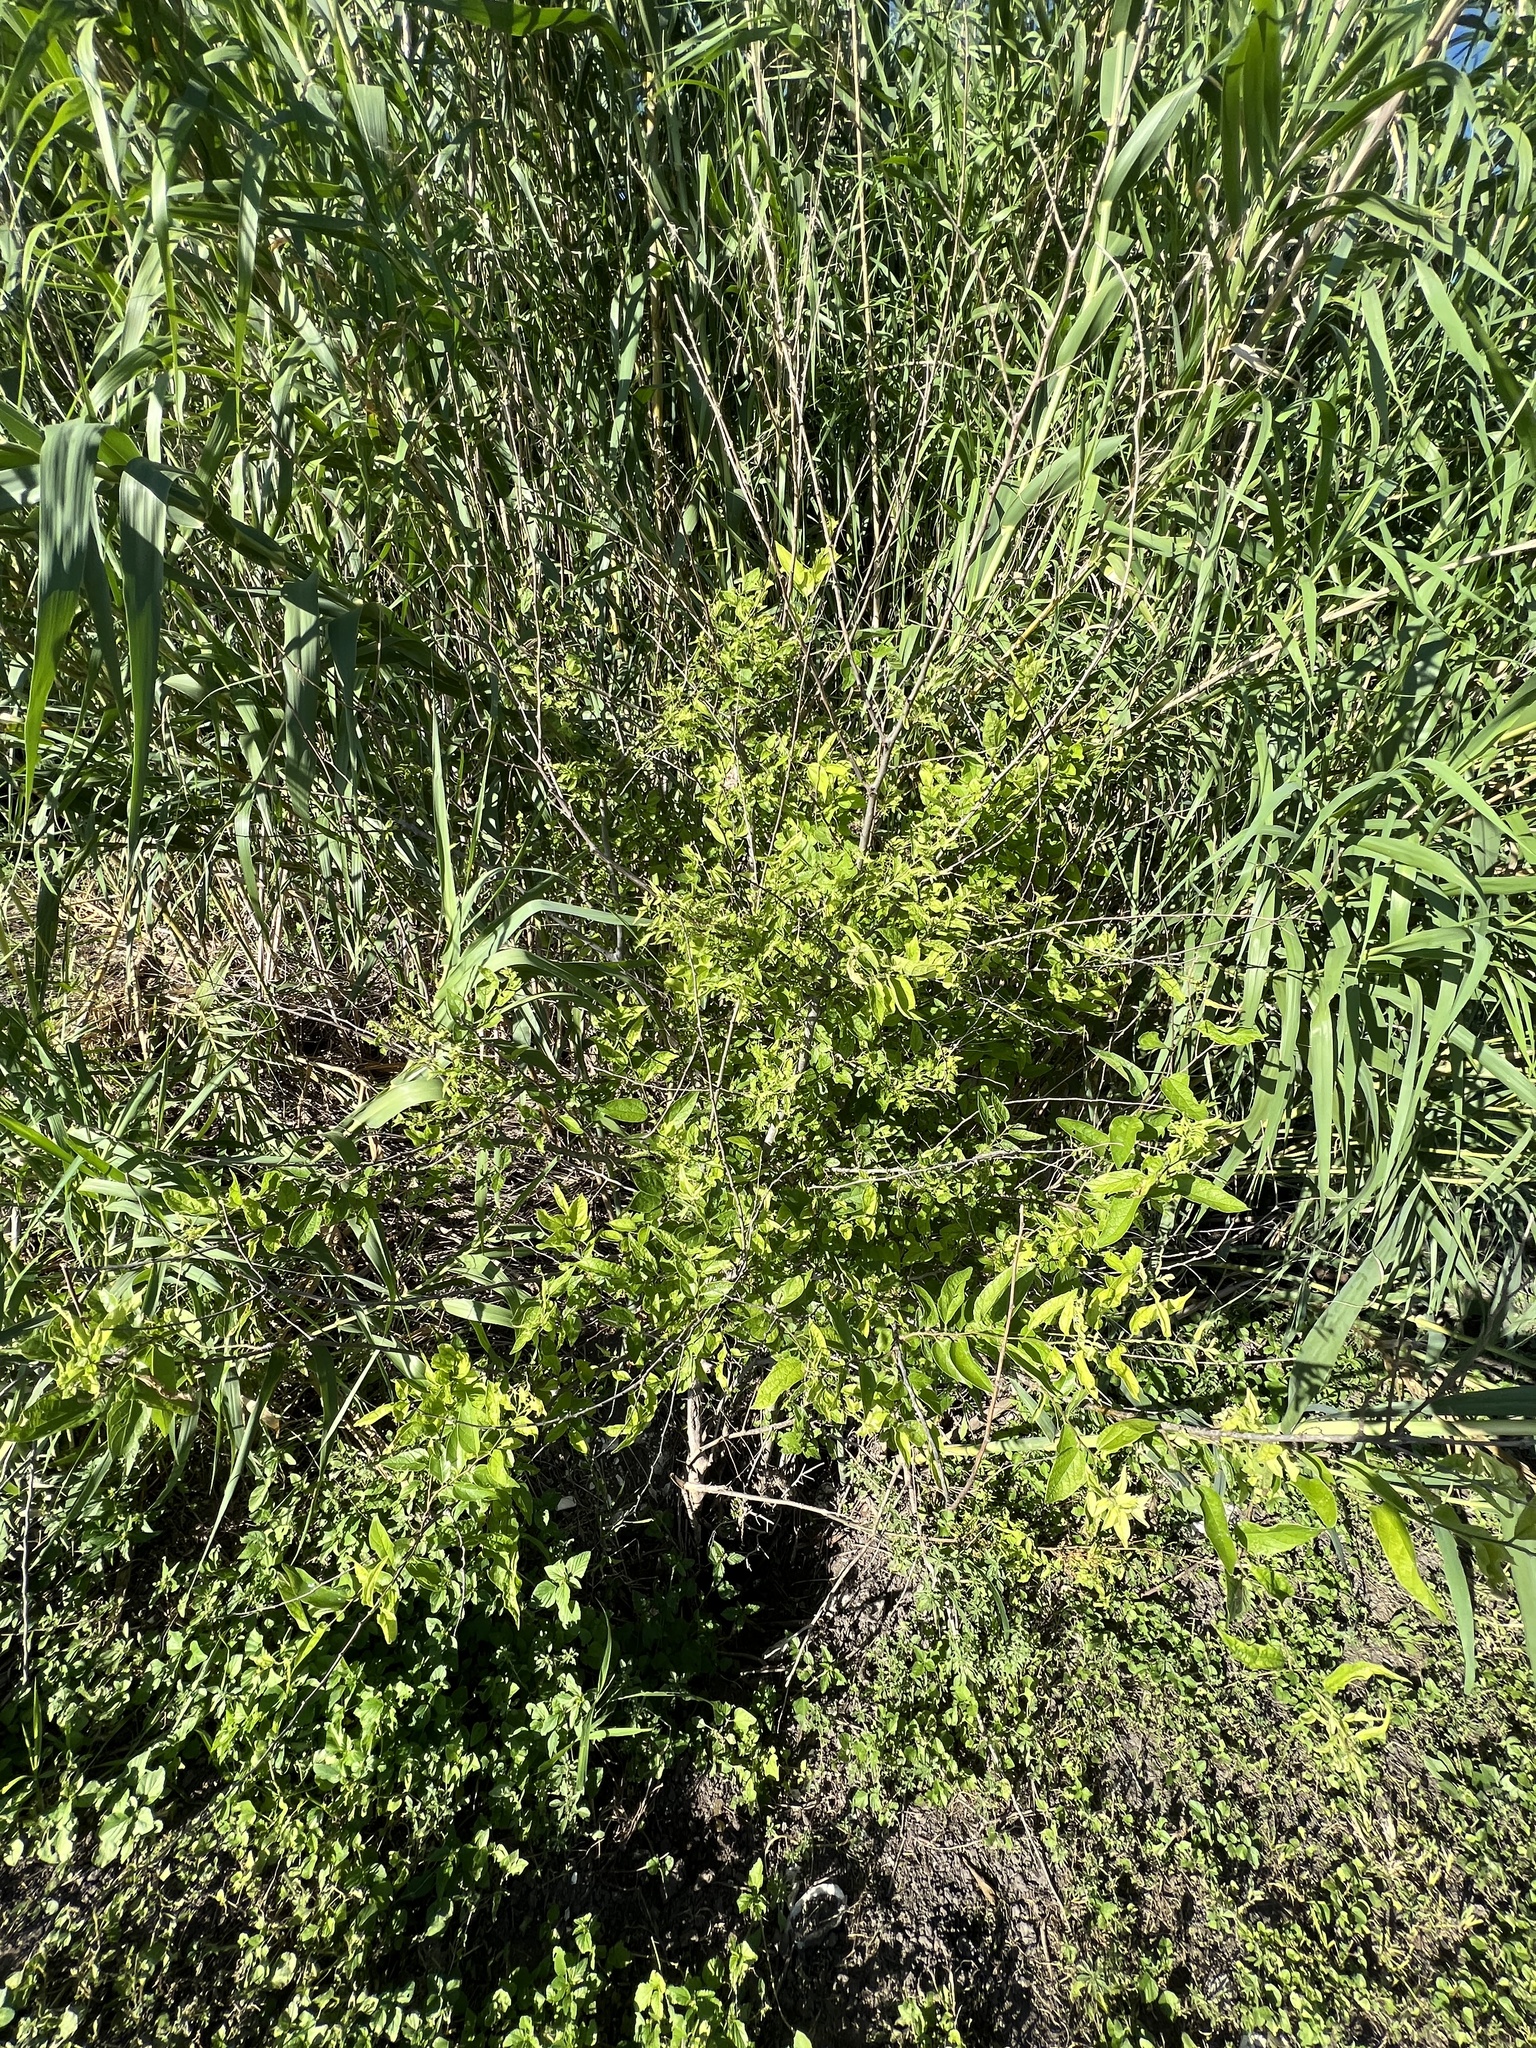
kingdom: Plantae
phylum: Tracheophyta
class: Magnoliopsida
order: Rosales
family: Cannabaceae
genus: Celtis
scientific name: Celtis reticulata
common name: Netleaf hackberry
